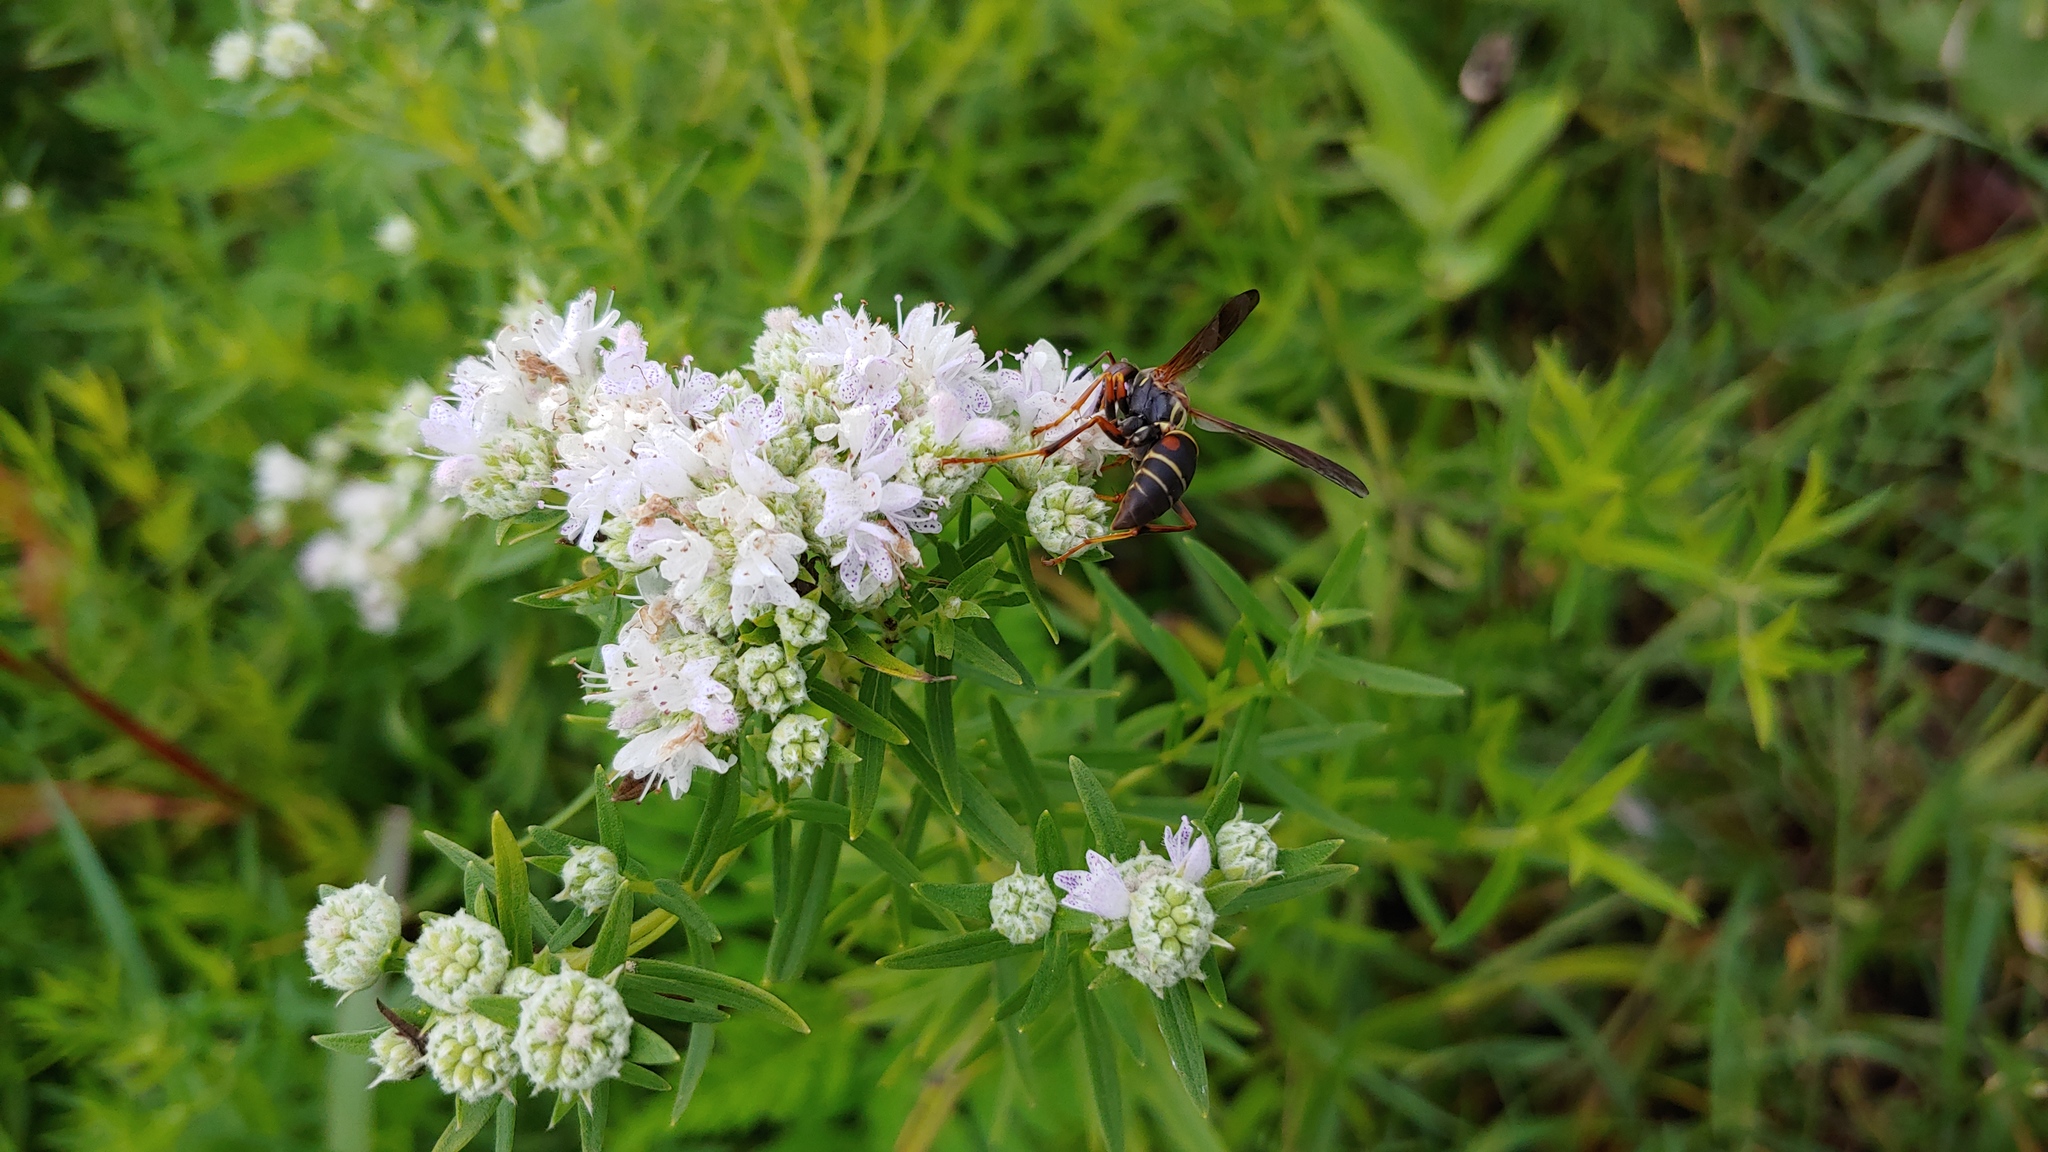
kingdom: Animalia
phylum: Arthropoda
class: Insecta
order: Hymenoptera
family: Eumenidae
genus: Polistes
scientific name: Polistes fuscatus
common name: Dark paper wasp
